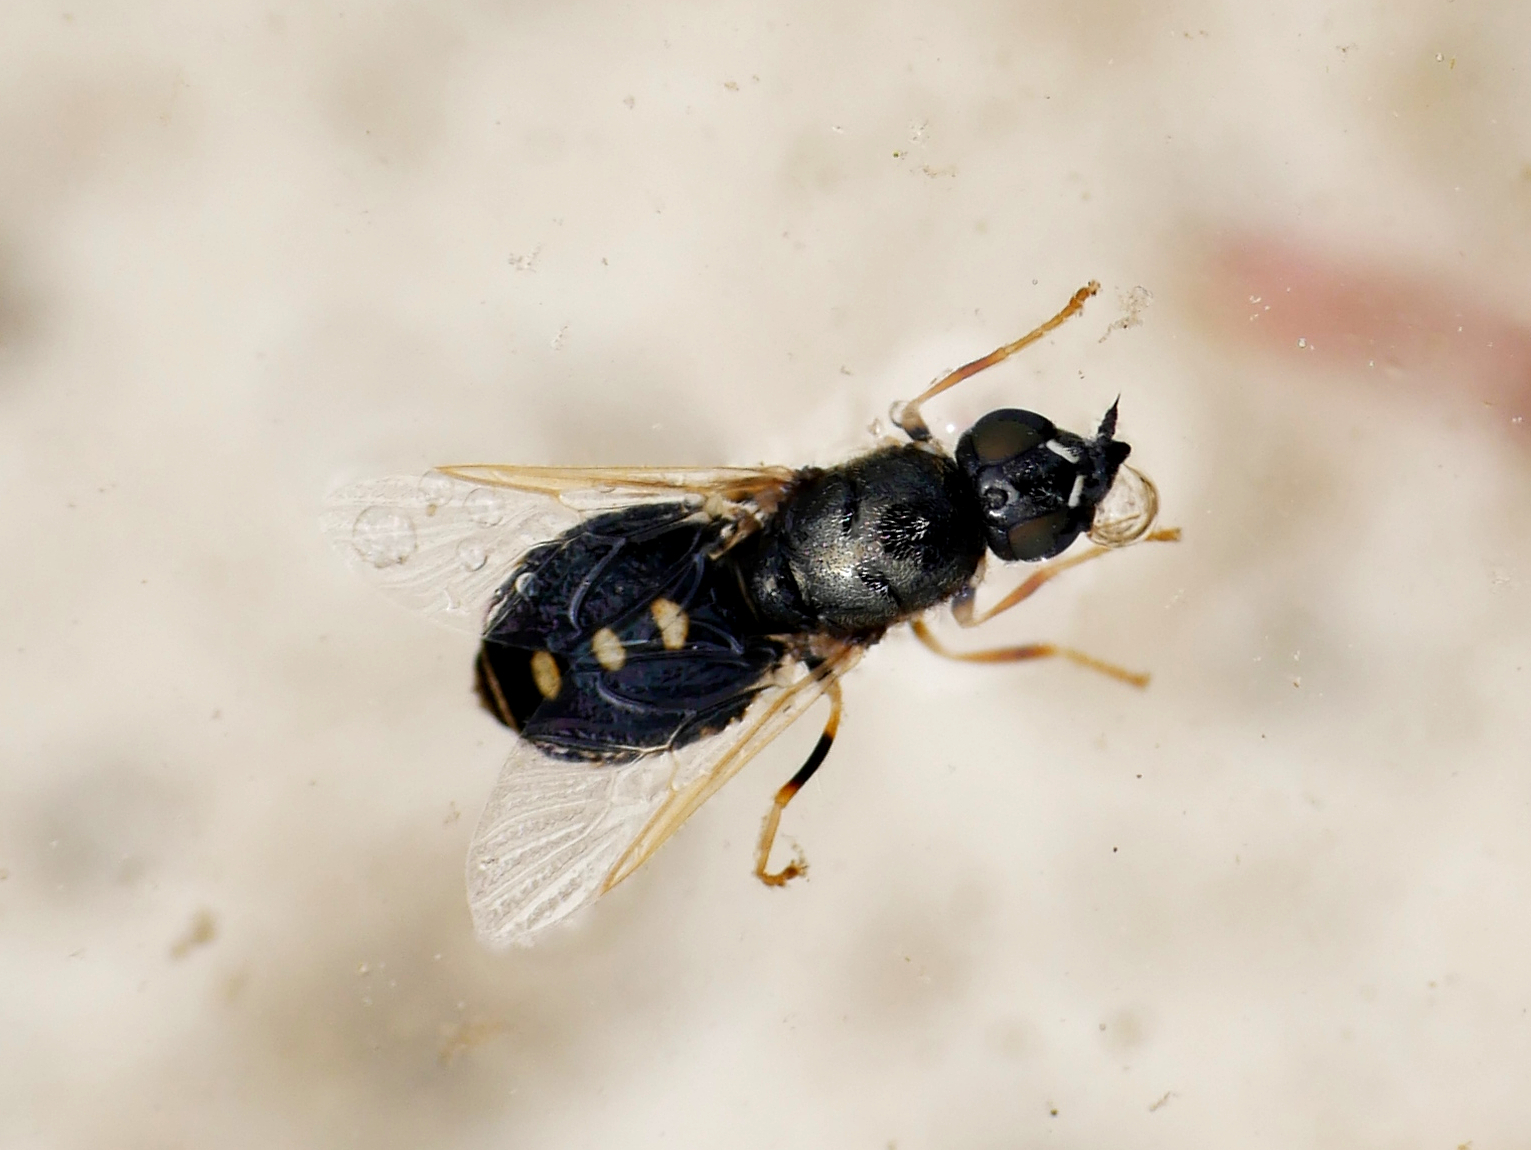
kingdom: Animalia
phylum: Arthropoda
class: Insecta
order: Diptera
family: Stratiomyidae
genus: Nemotelus
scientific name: Nemotelus notatus
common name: Flecked snout
